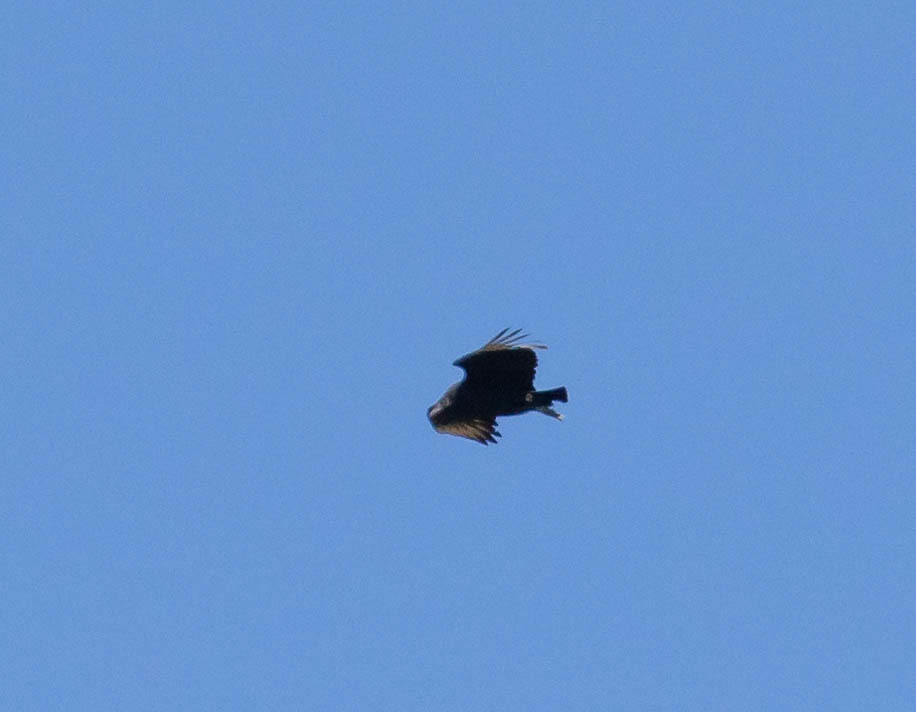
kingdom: Animalia
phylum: Chordata
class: Aves
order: Accipitriformes
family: Cathartidae
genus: Coragyps
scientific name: Coragyps atratus
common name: Black vulture
